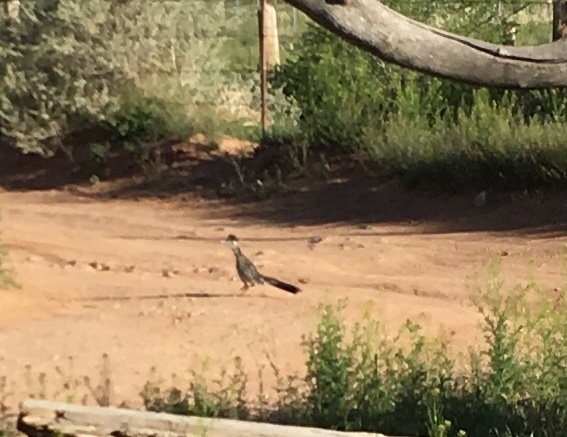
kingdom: Animalia
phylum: Chordata
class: Aves
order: Cuculiformes
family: Cuculidae
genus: Geococcyx
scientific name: Geococcyx californianus
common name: Greater roadrunner
